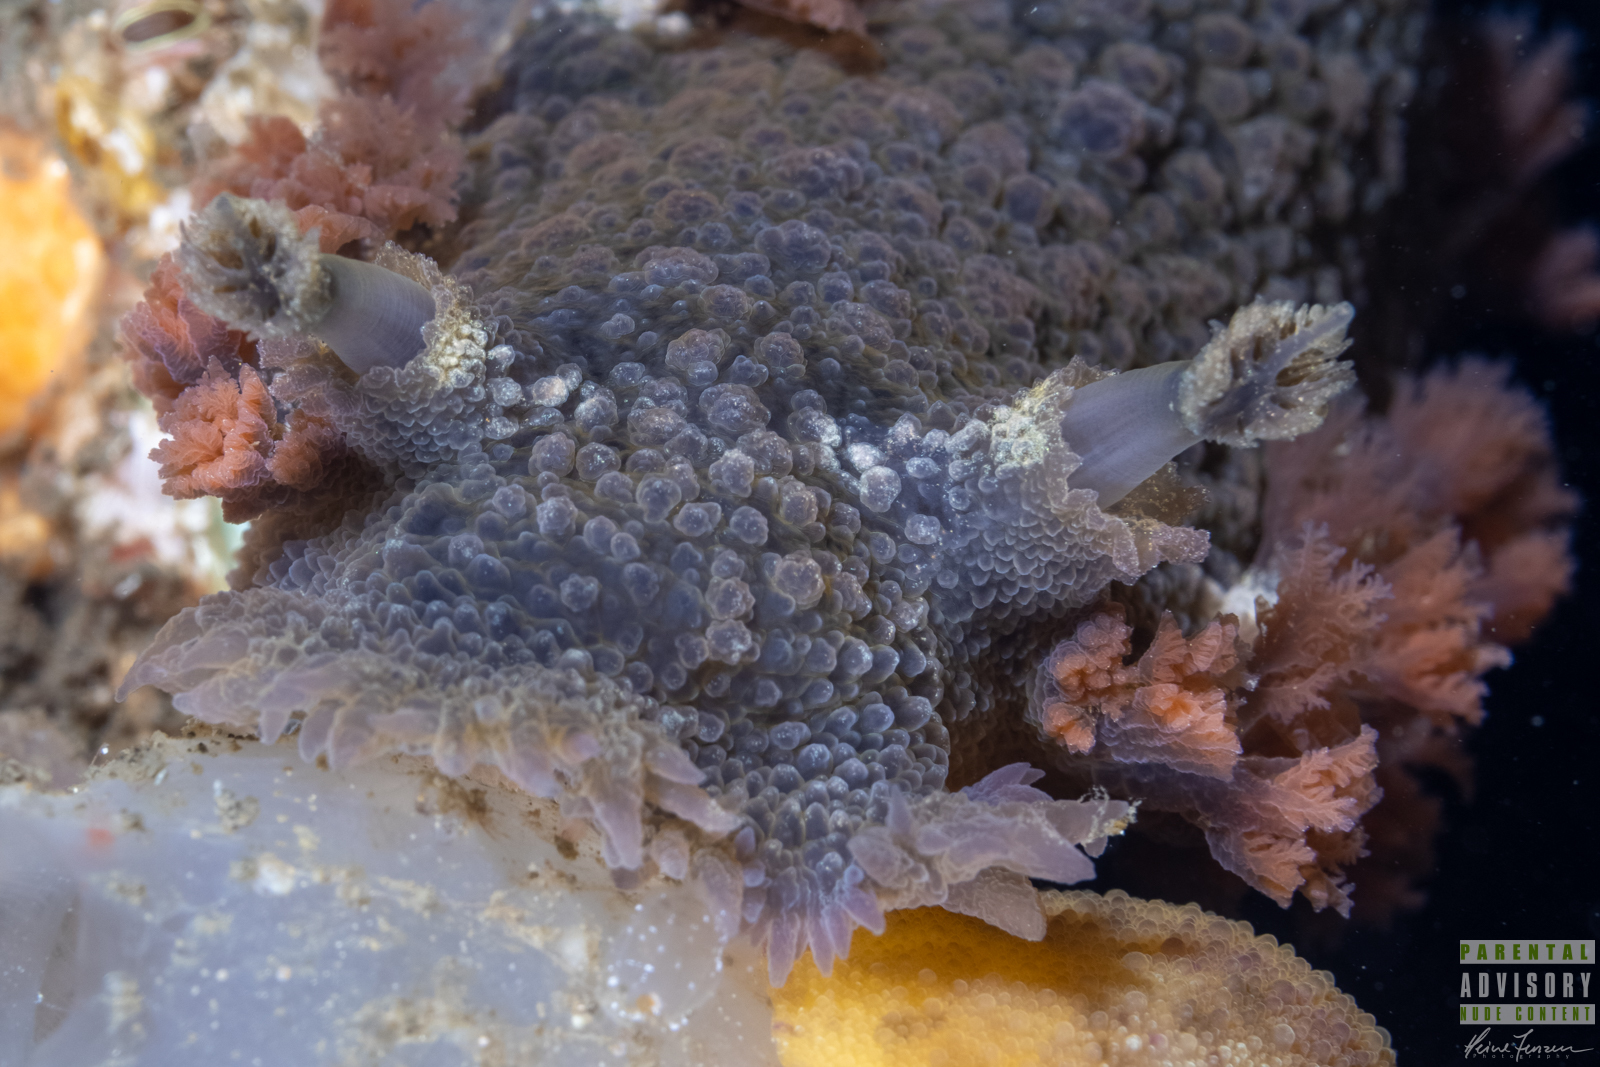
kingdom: Animalia
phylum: Mollusca
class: Gastropoda
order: Nudibranchia
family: Tritoniidae
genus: Tritonia
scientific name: Tritonia hombergii
